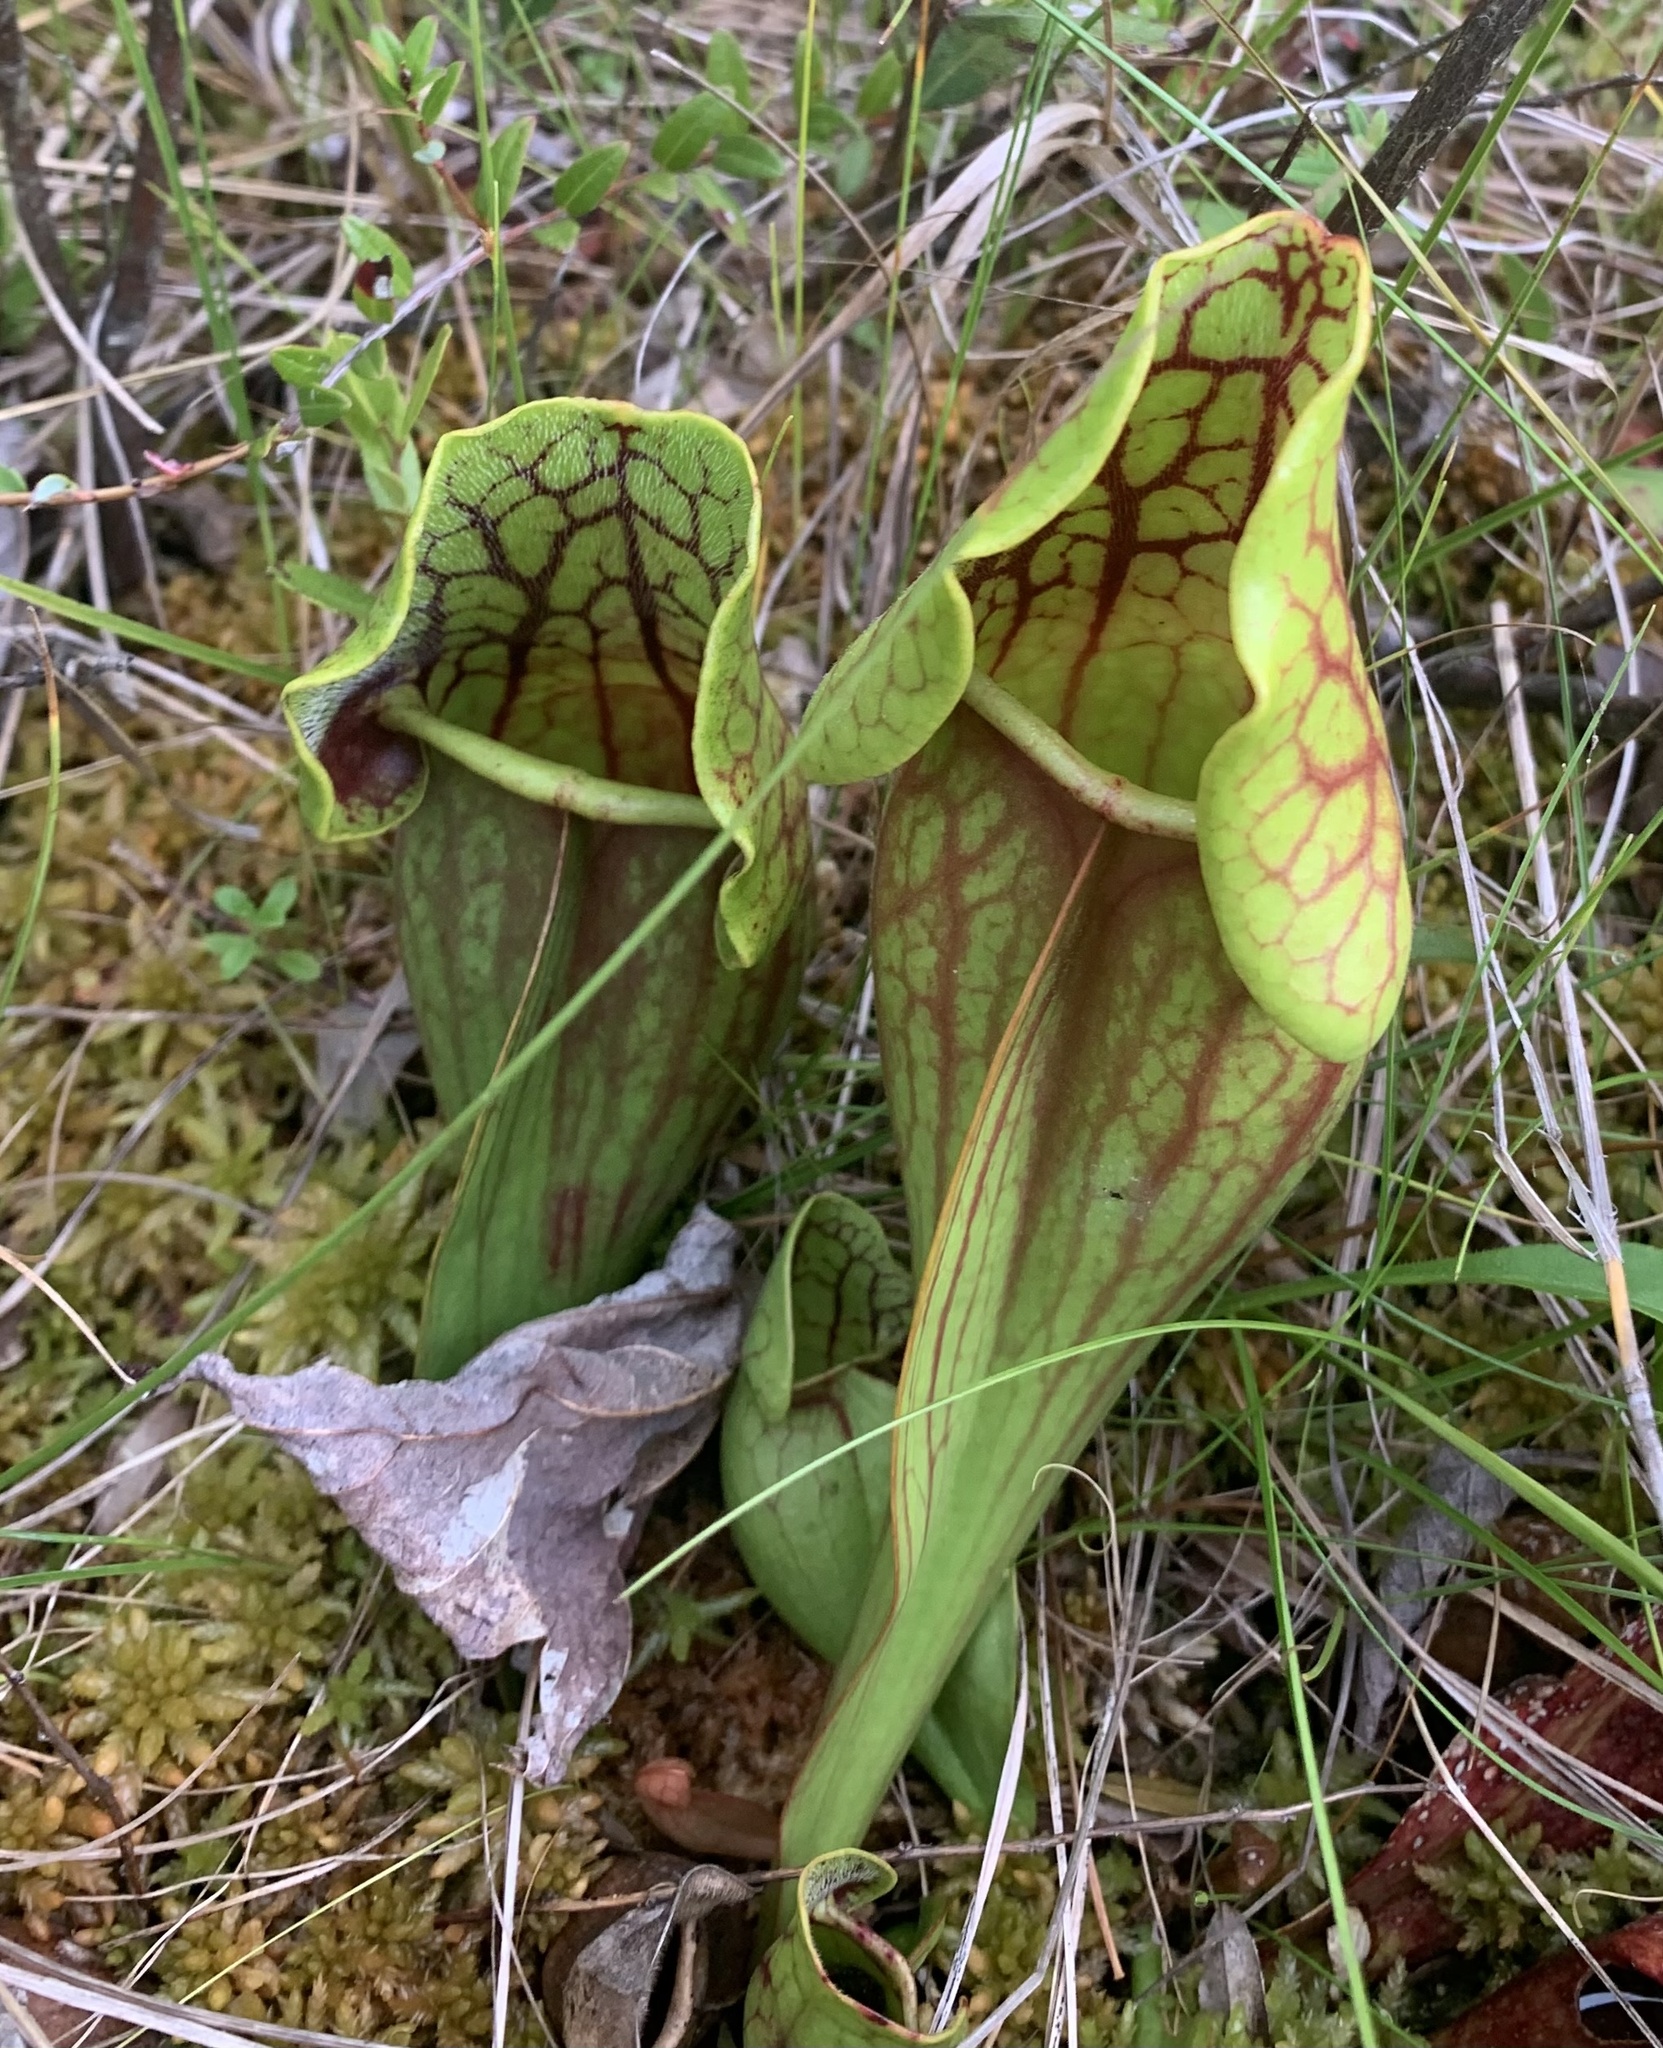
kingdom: Plantae
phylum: Tracheophyta
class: Magnoliopsida
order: Ericales
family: Sarraceniaceae
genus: Sarracenia
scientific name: Sarracenia purpurea
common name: Pitcherplant
